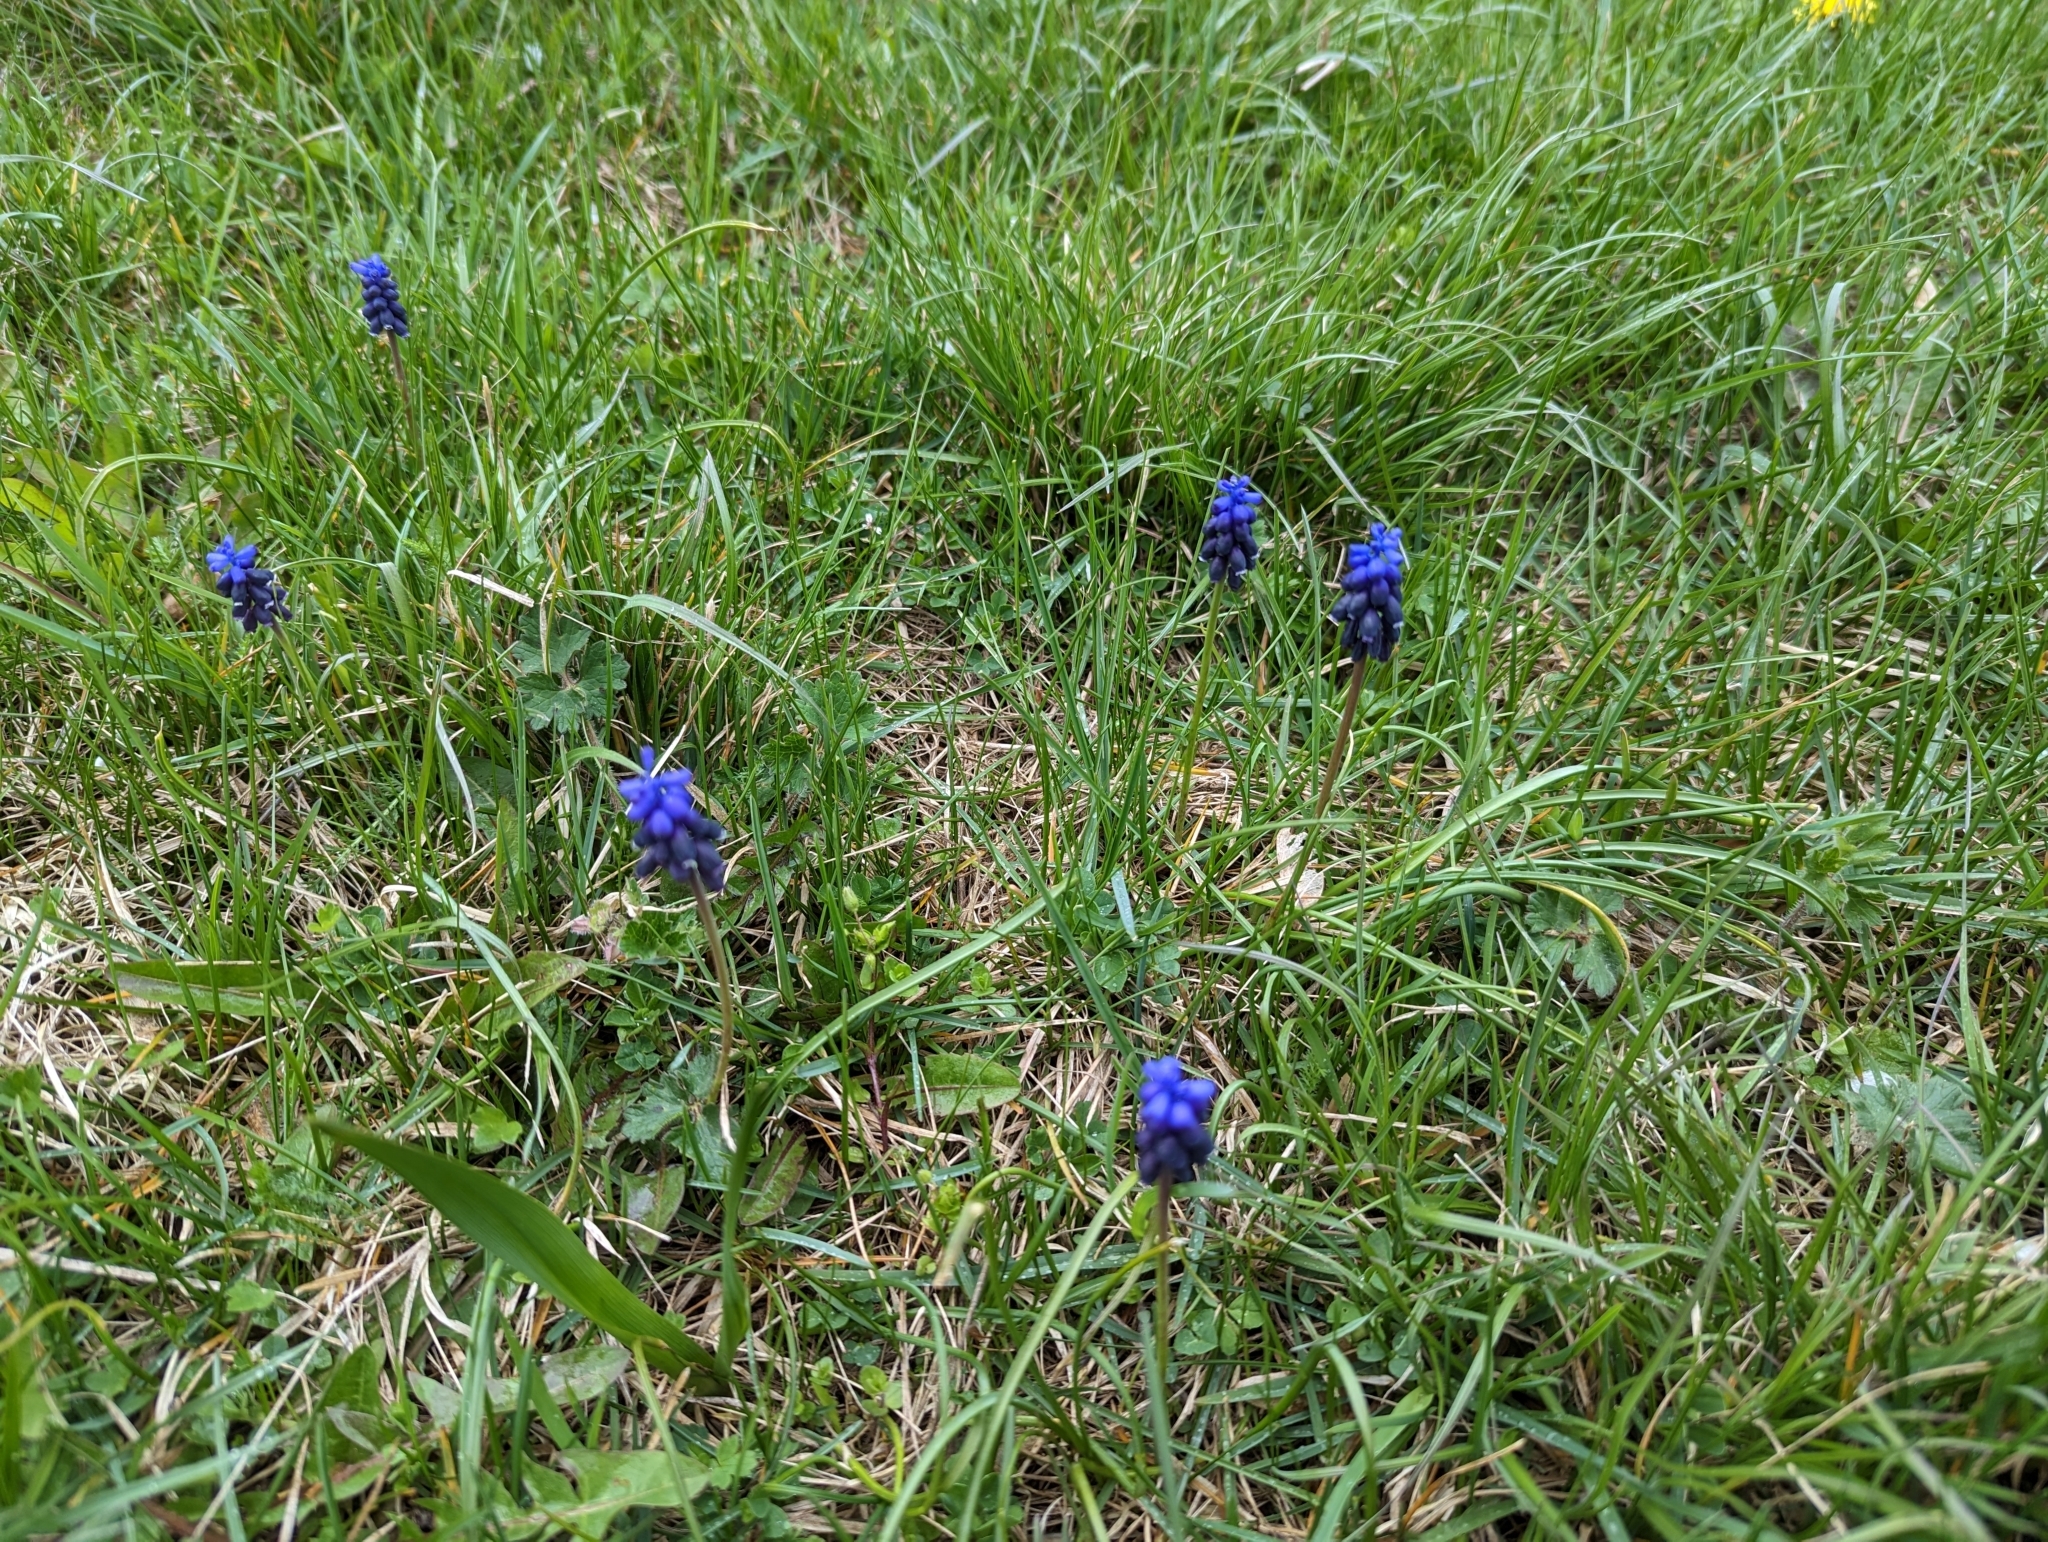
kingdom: Plantae
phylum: Tracheophyta
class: Liliopsida
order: Asparagales
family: Asparagaceae
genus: Muscari
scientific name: Muscari neglectum
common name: Grape-hyacinth
